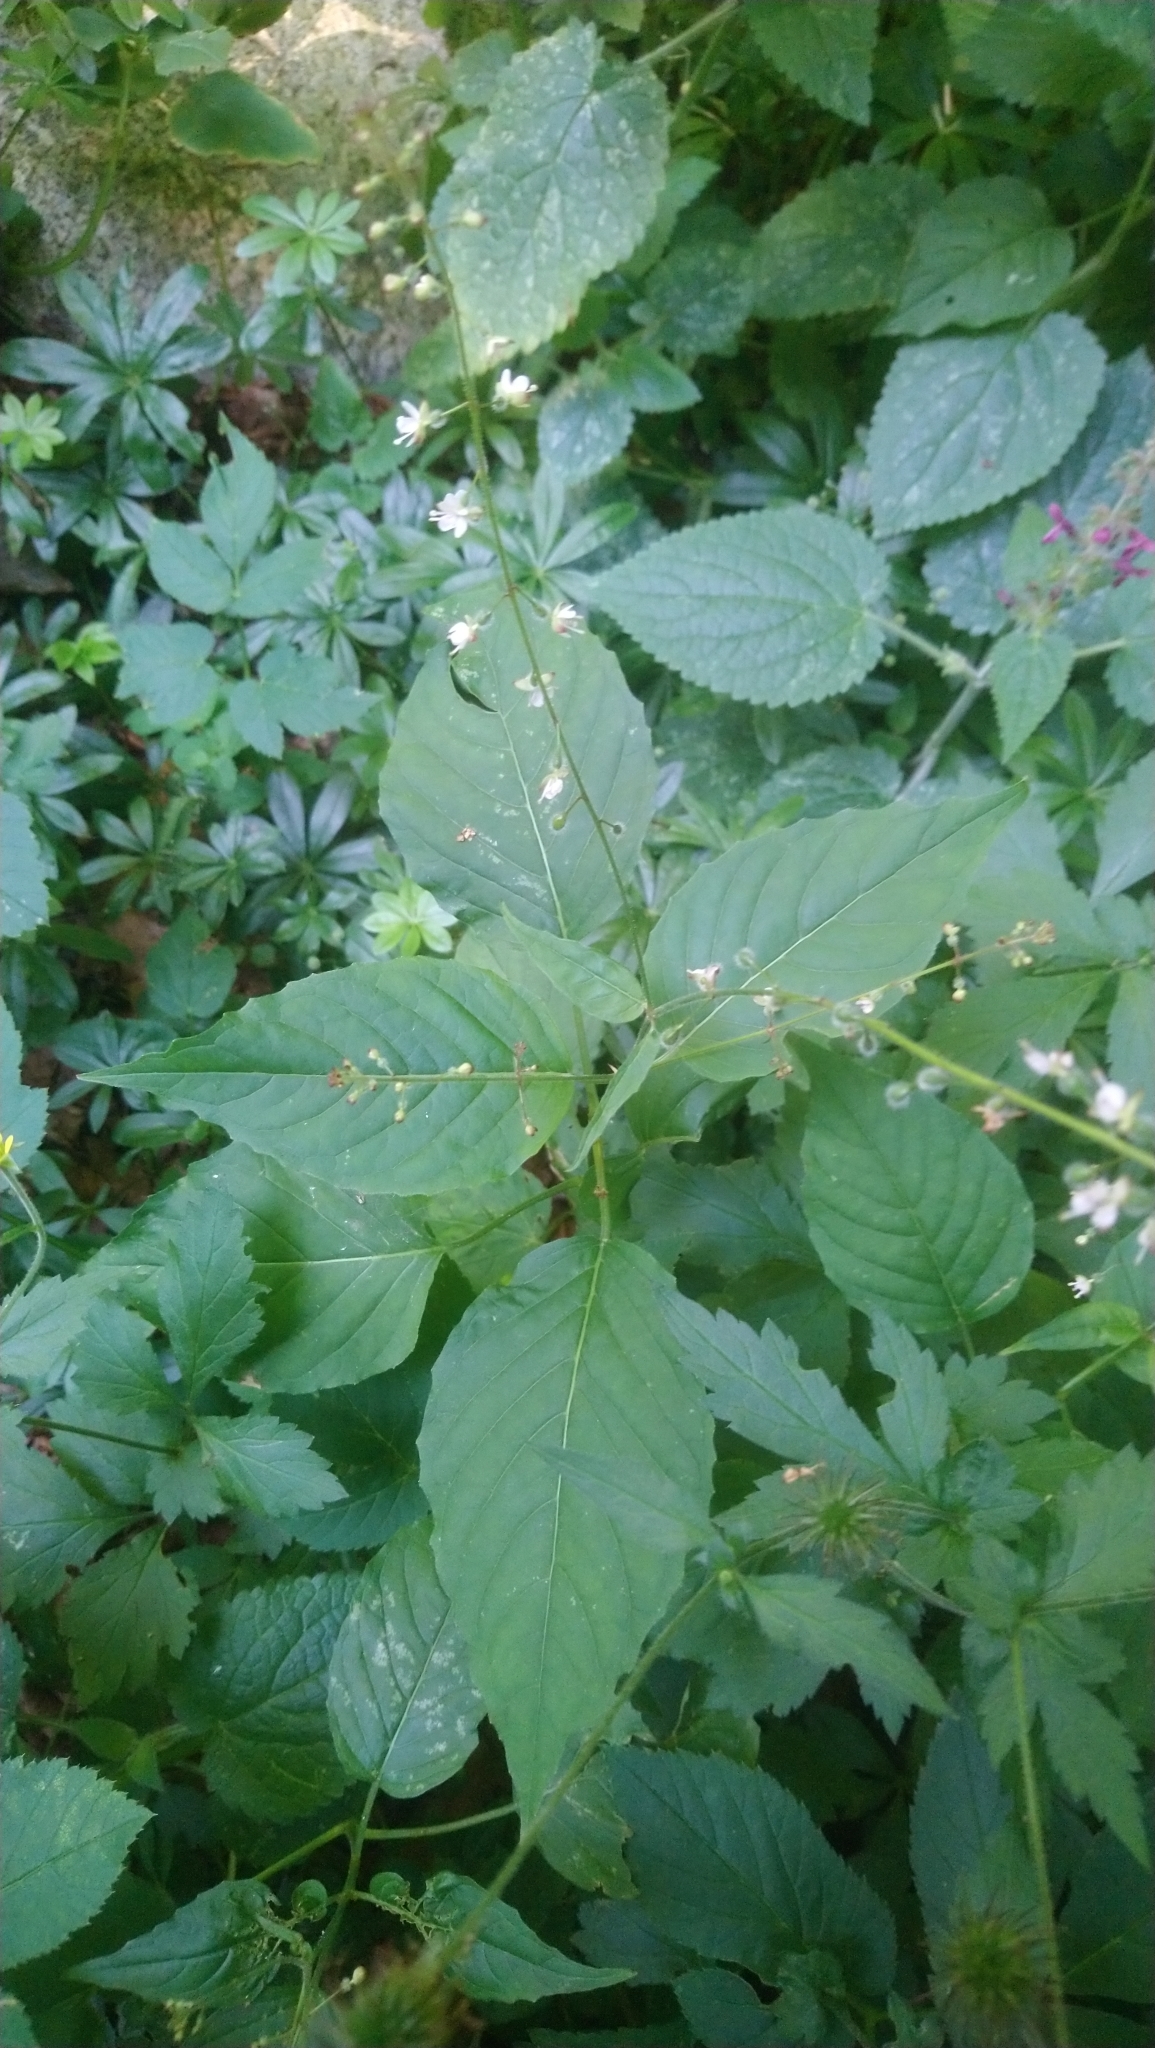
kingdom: Plantae
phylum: Tracheophyta
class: Magnoliopsida
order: Myrtales
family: Onagraceae
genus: Circaea
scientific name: Circaea lutetiana
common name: Enchanter's-nightshade
